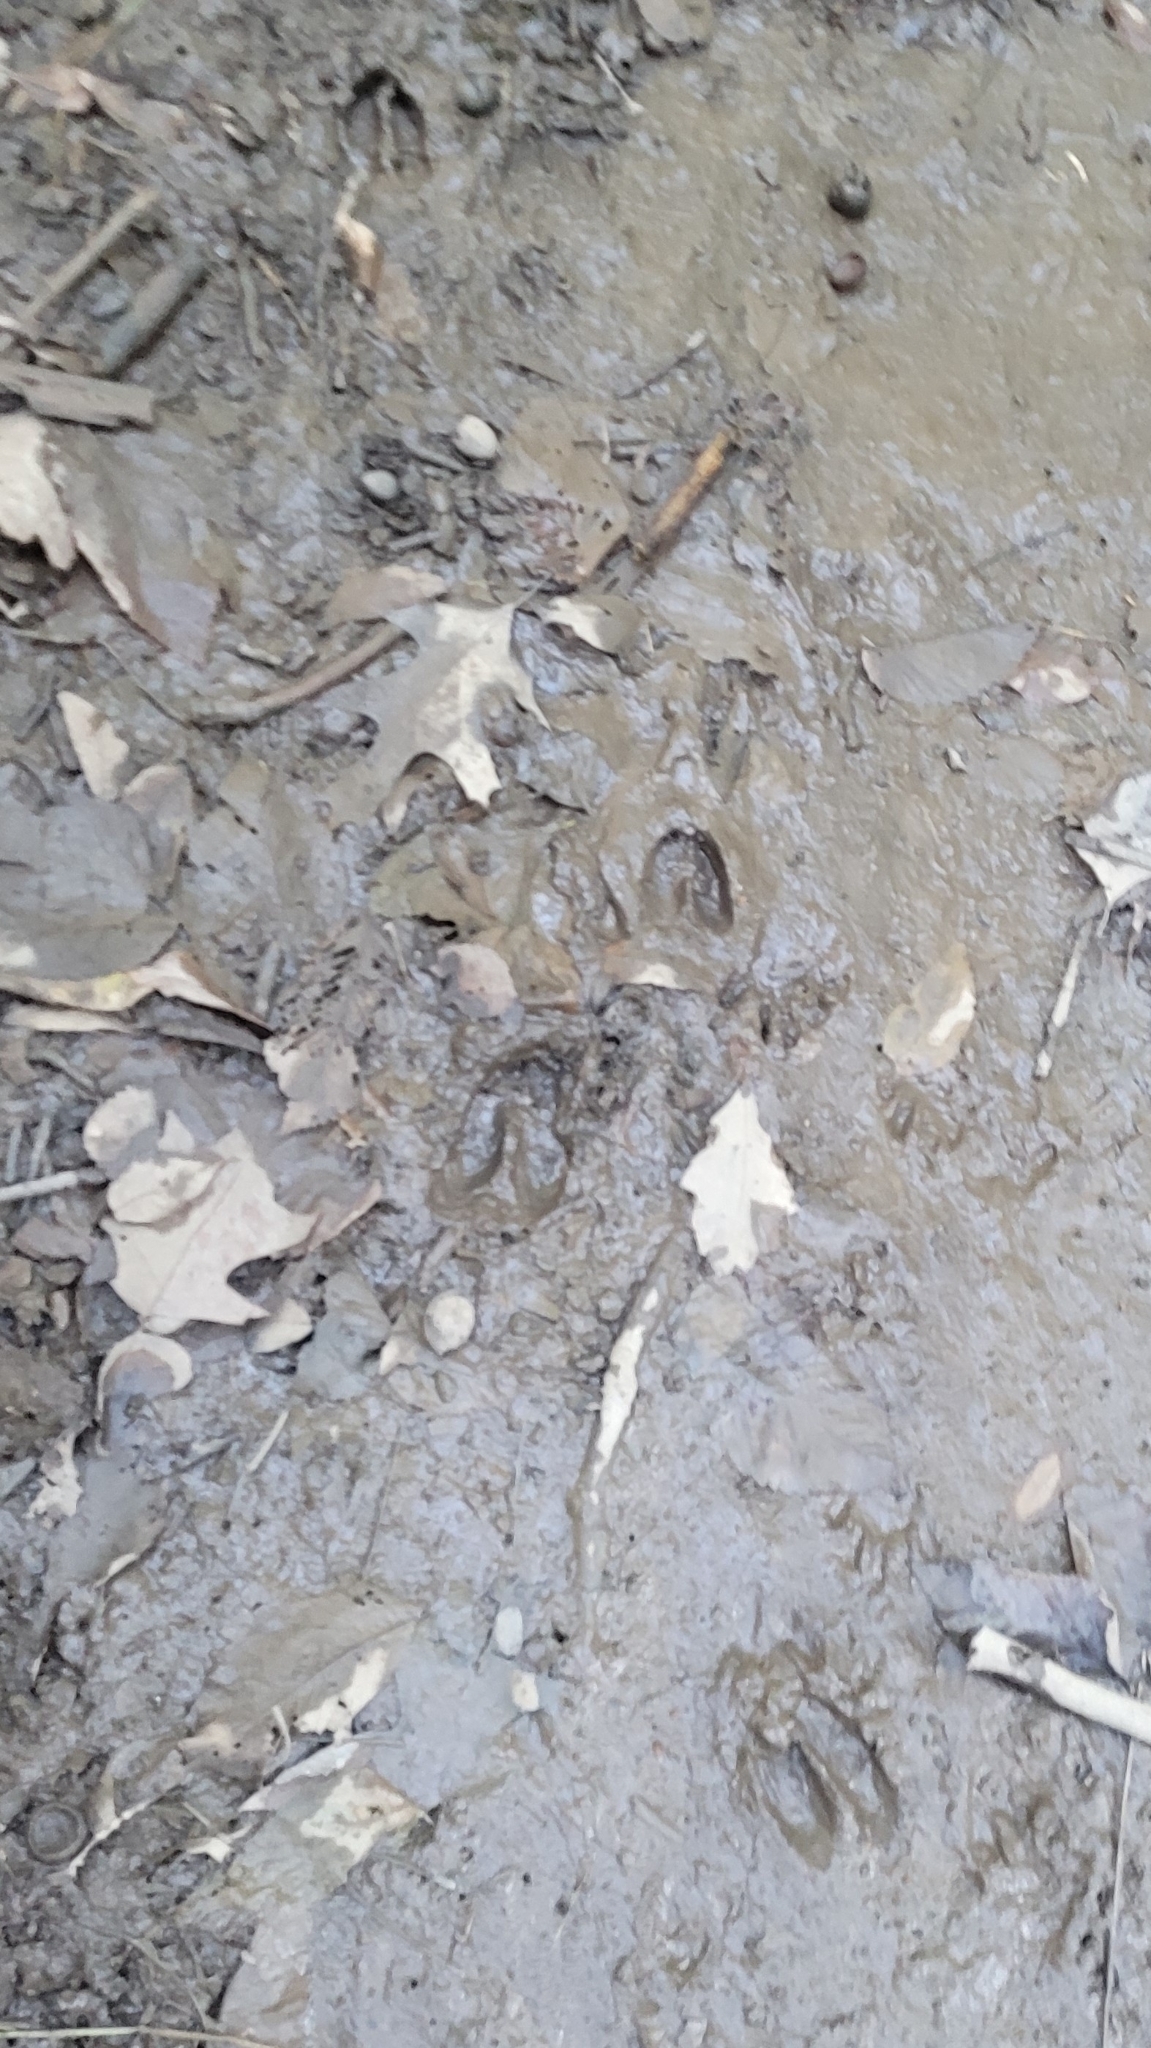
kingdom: Animalia
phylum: Chordata
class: Mammalia
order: Artiodactyla
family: Cervidae
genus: Odocoileus
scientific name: Odocoileus virginianus
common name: White-tailed deer
